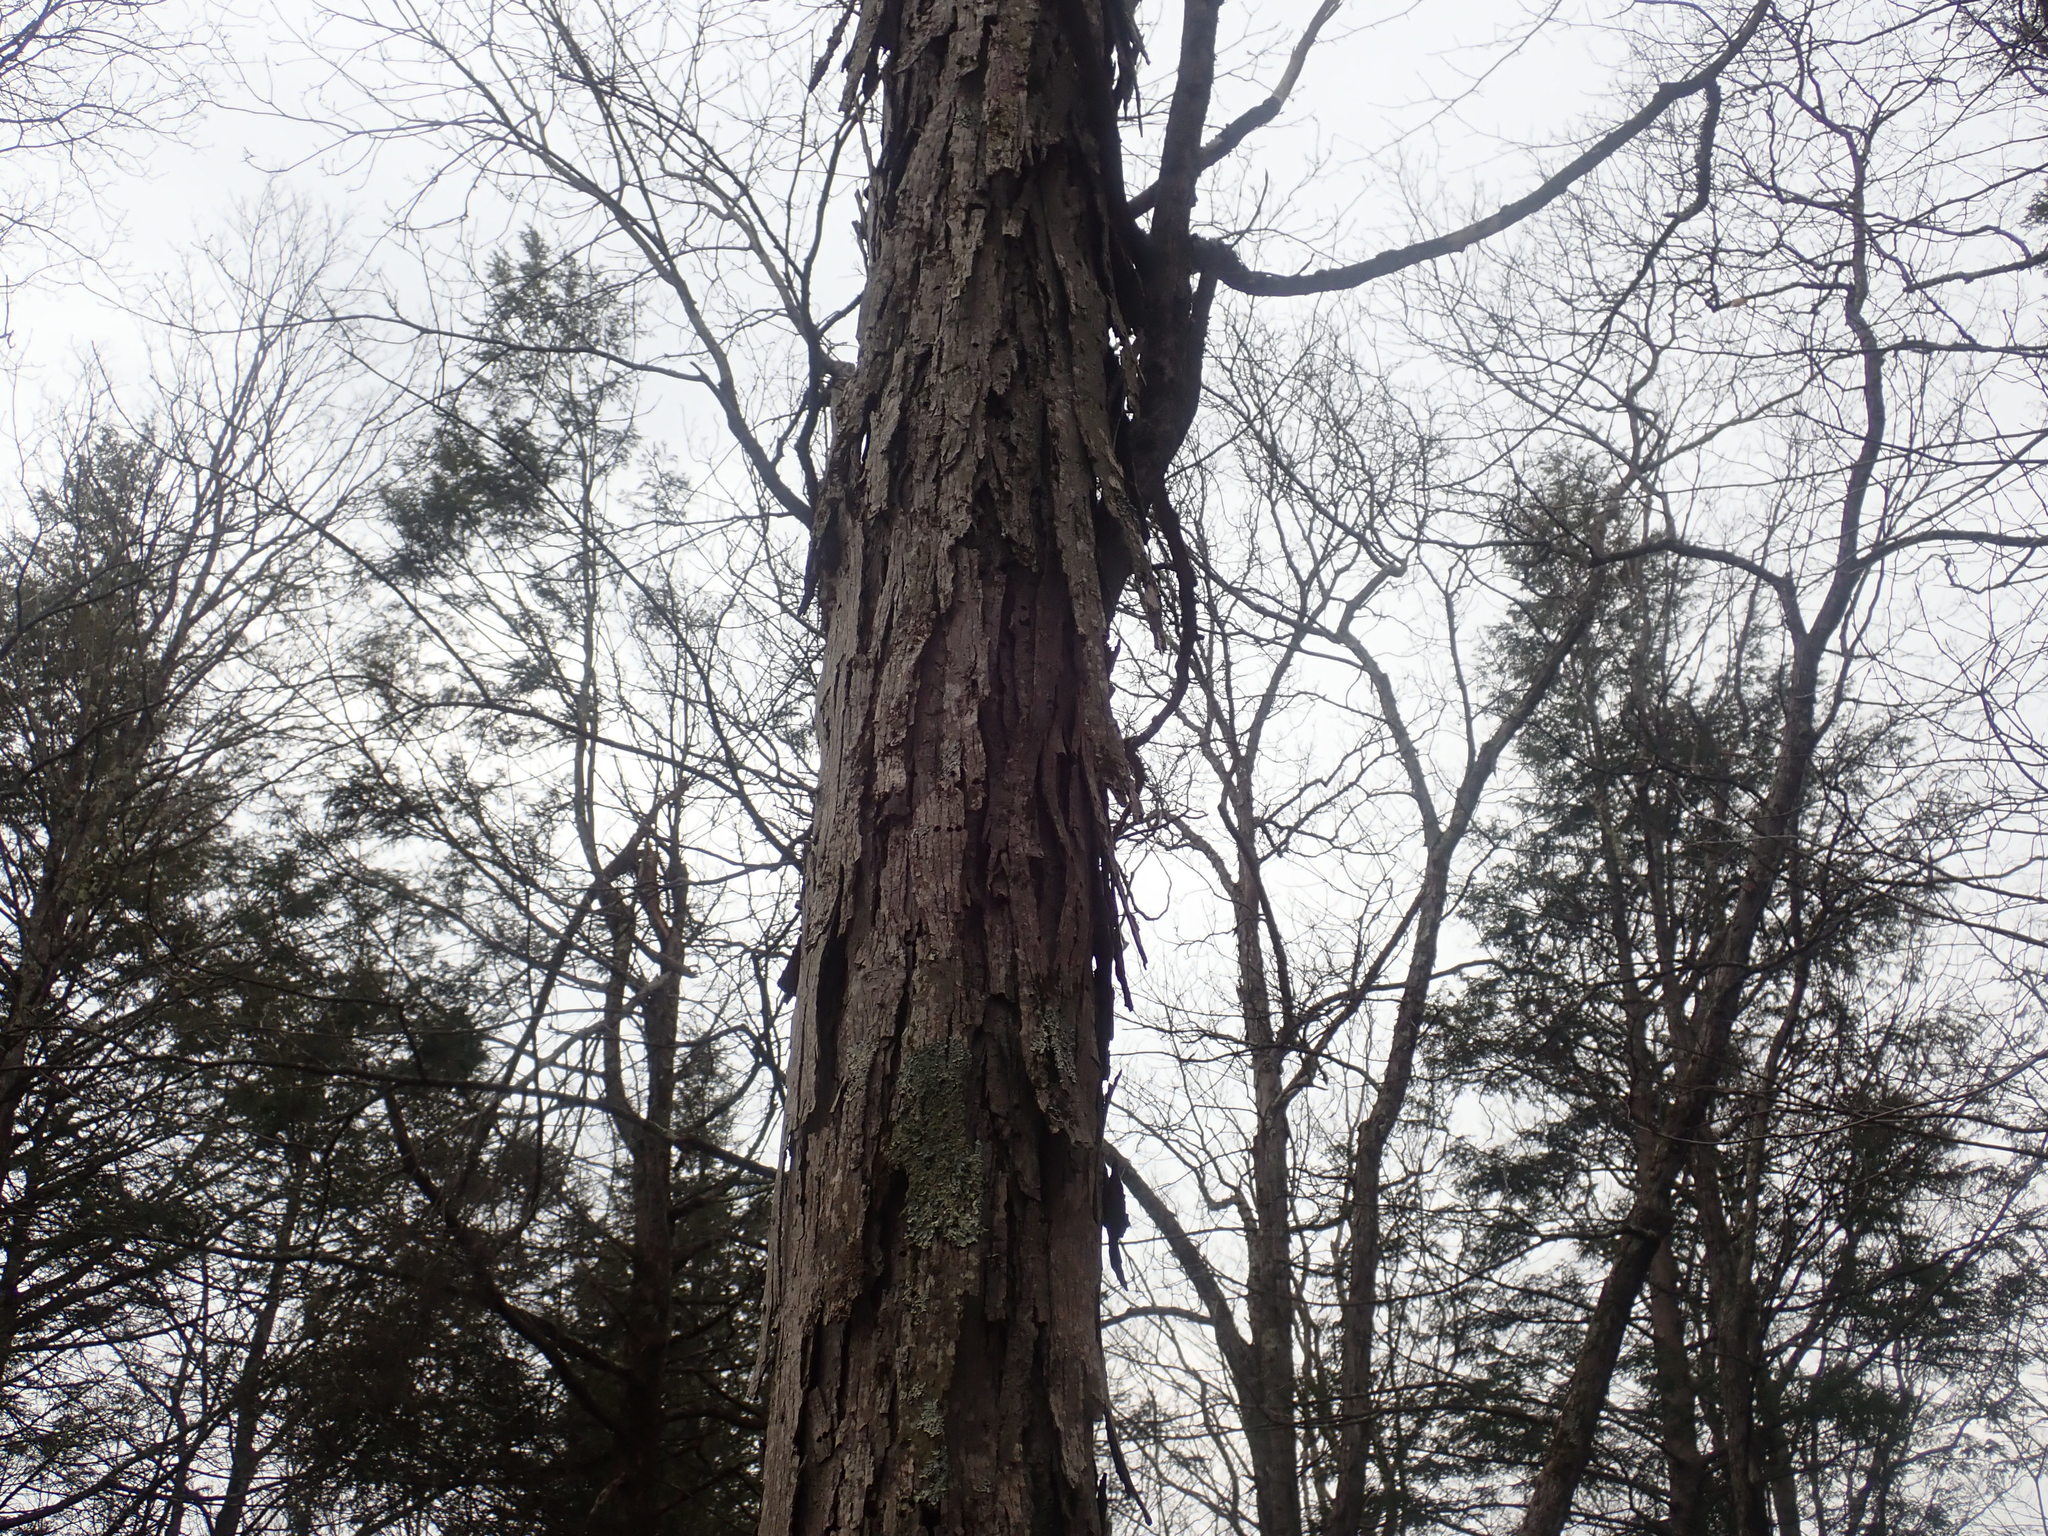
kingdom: Plantae
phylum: Tracheophyta
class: Magnoliopsida
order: Fagales
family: Juglandaceae
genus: Carya
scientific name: Carya ovata
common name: Shagbark hickory
